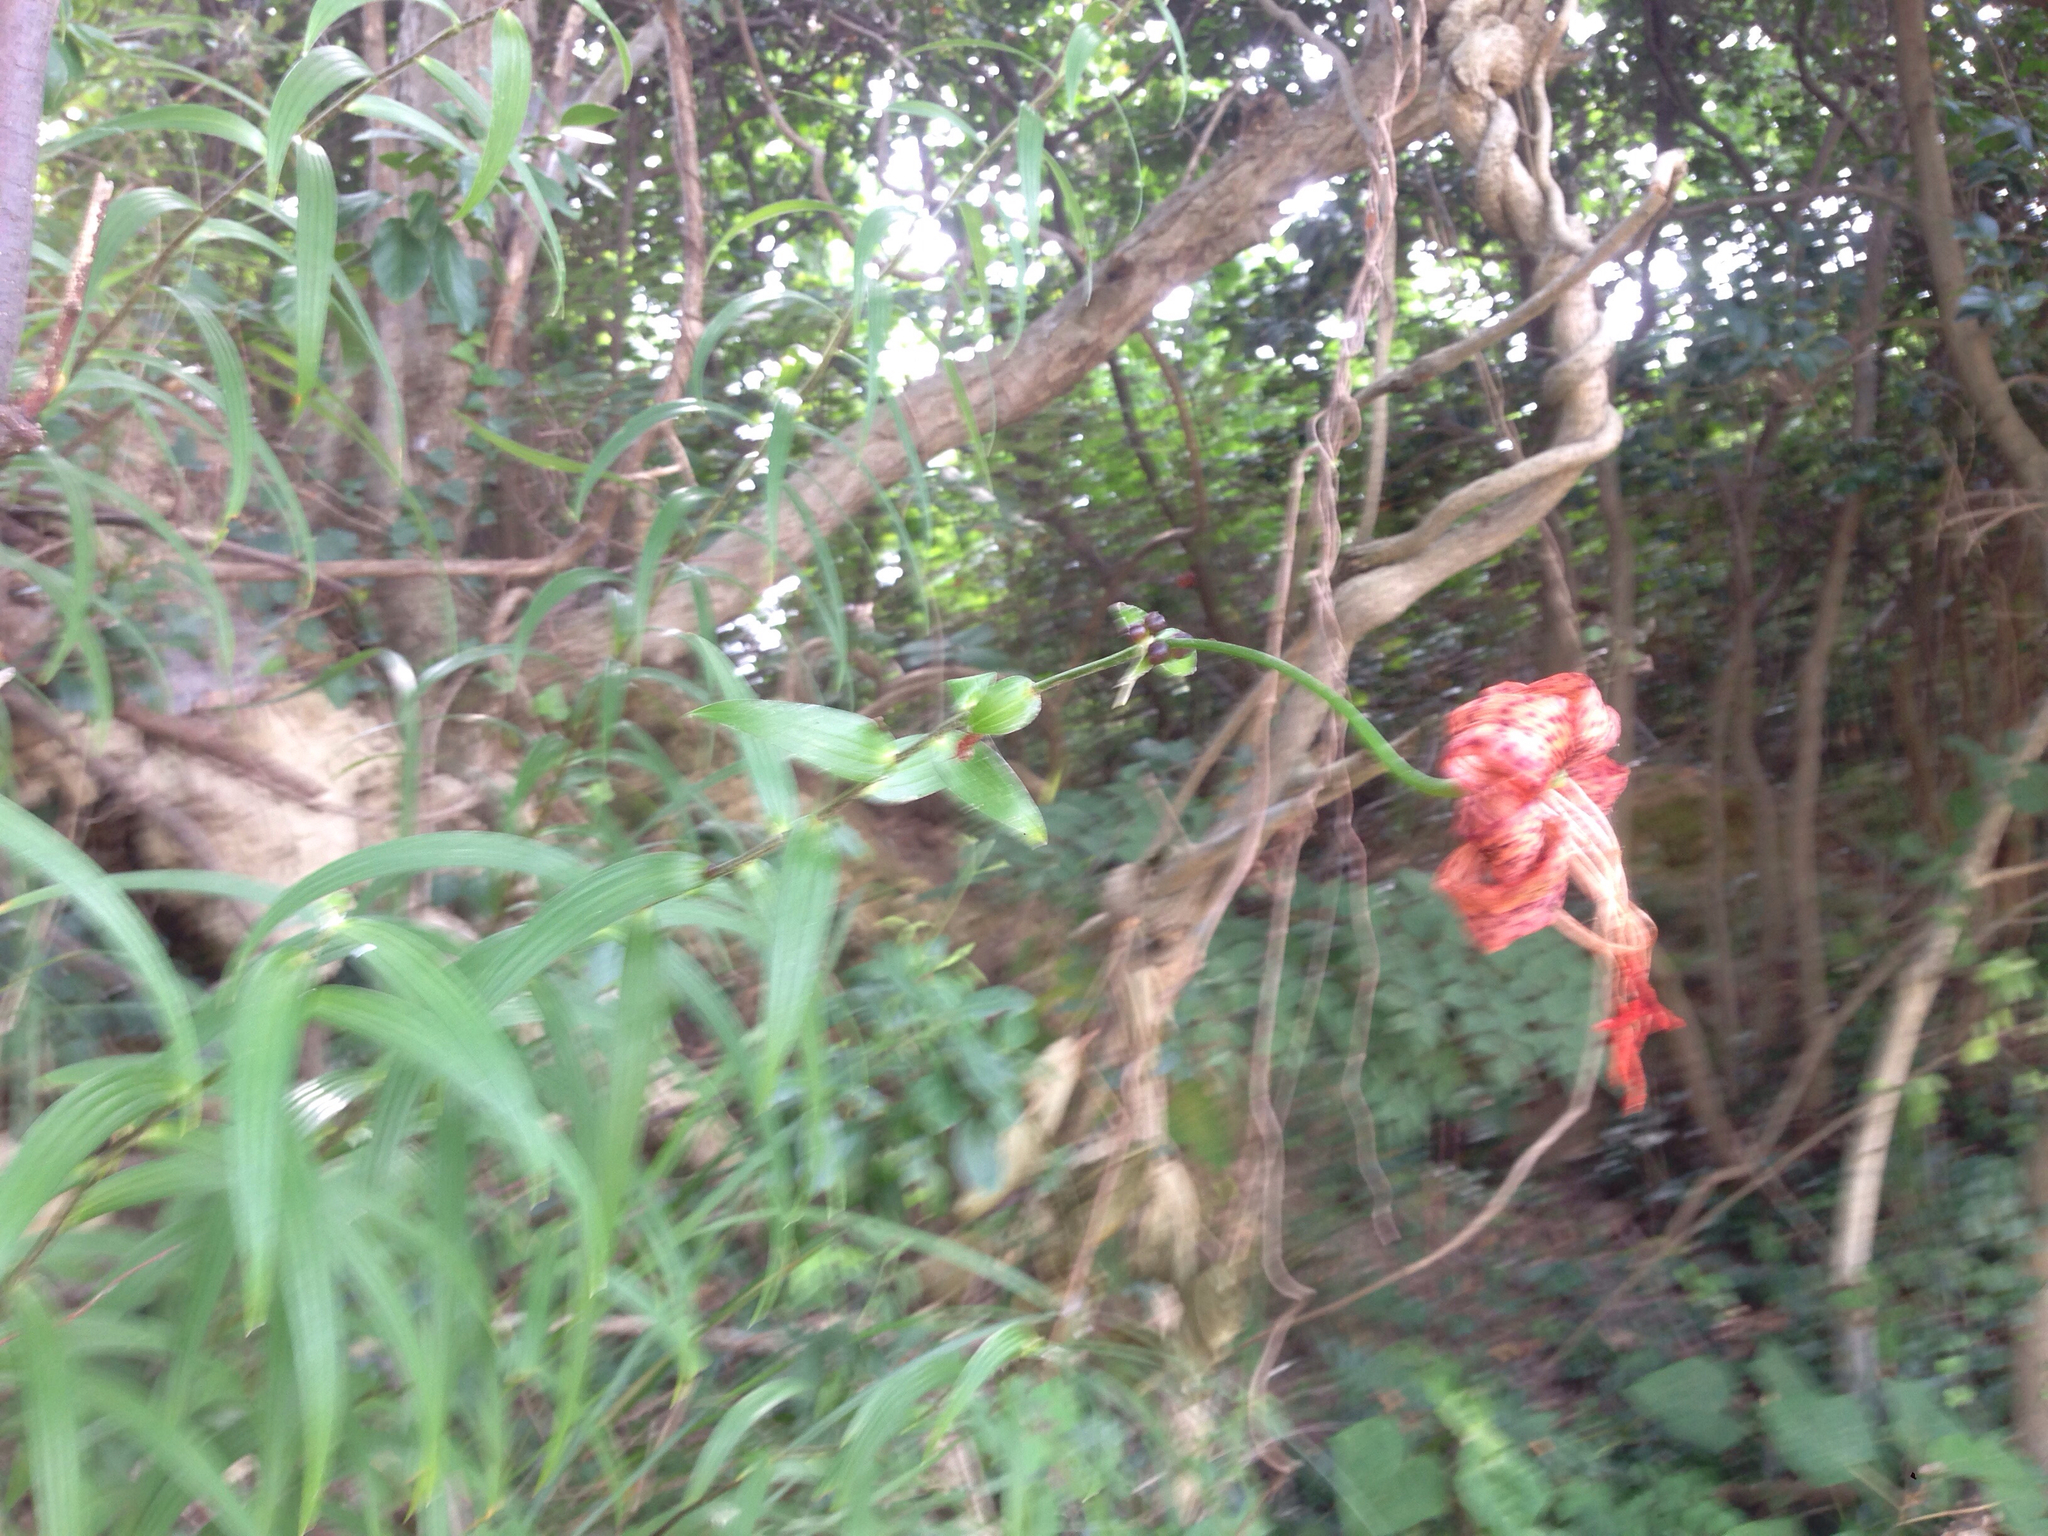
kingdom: Plantae
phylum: Tracheophyta
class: Liliopsida
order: Liliales
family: Liliaceae
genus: Lilium
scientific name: Lilium lancifolium
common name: Tiger lily
